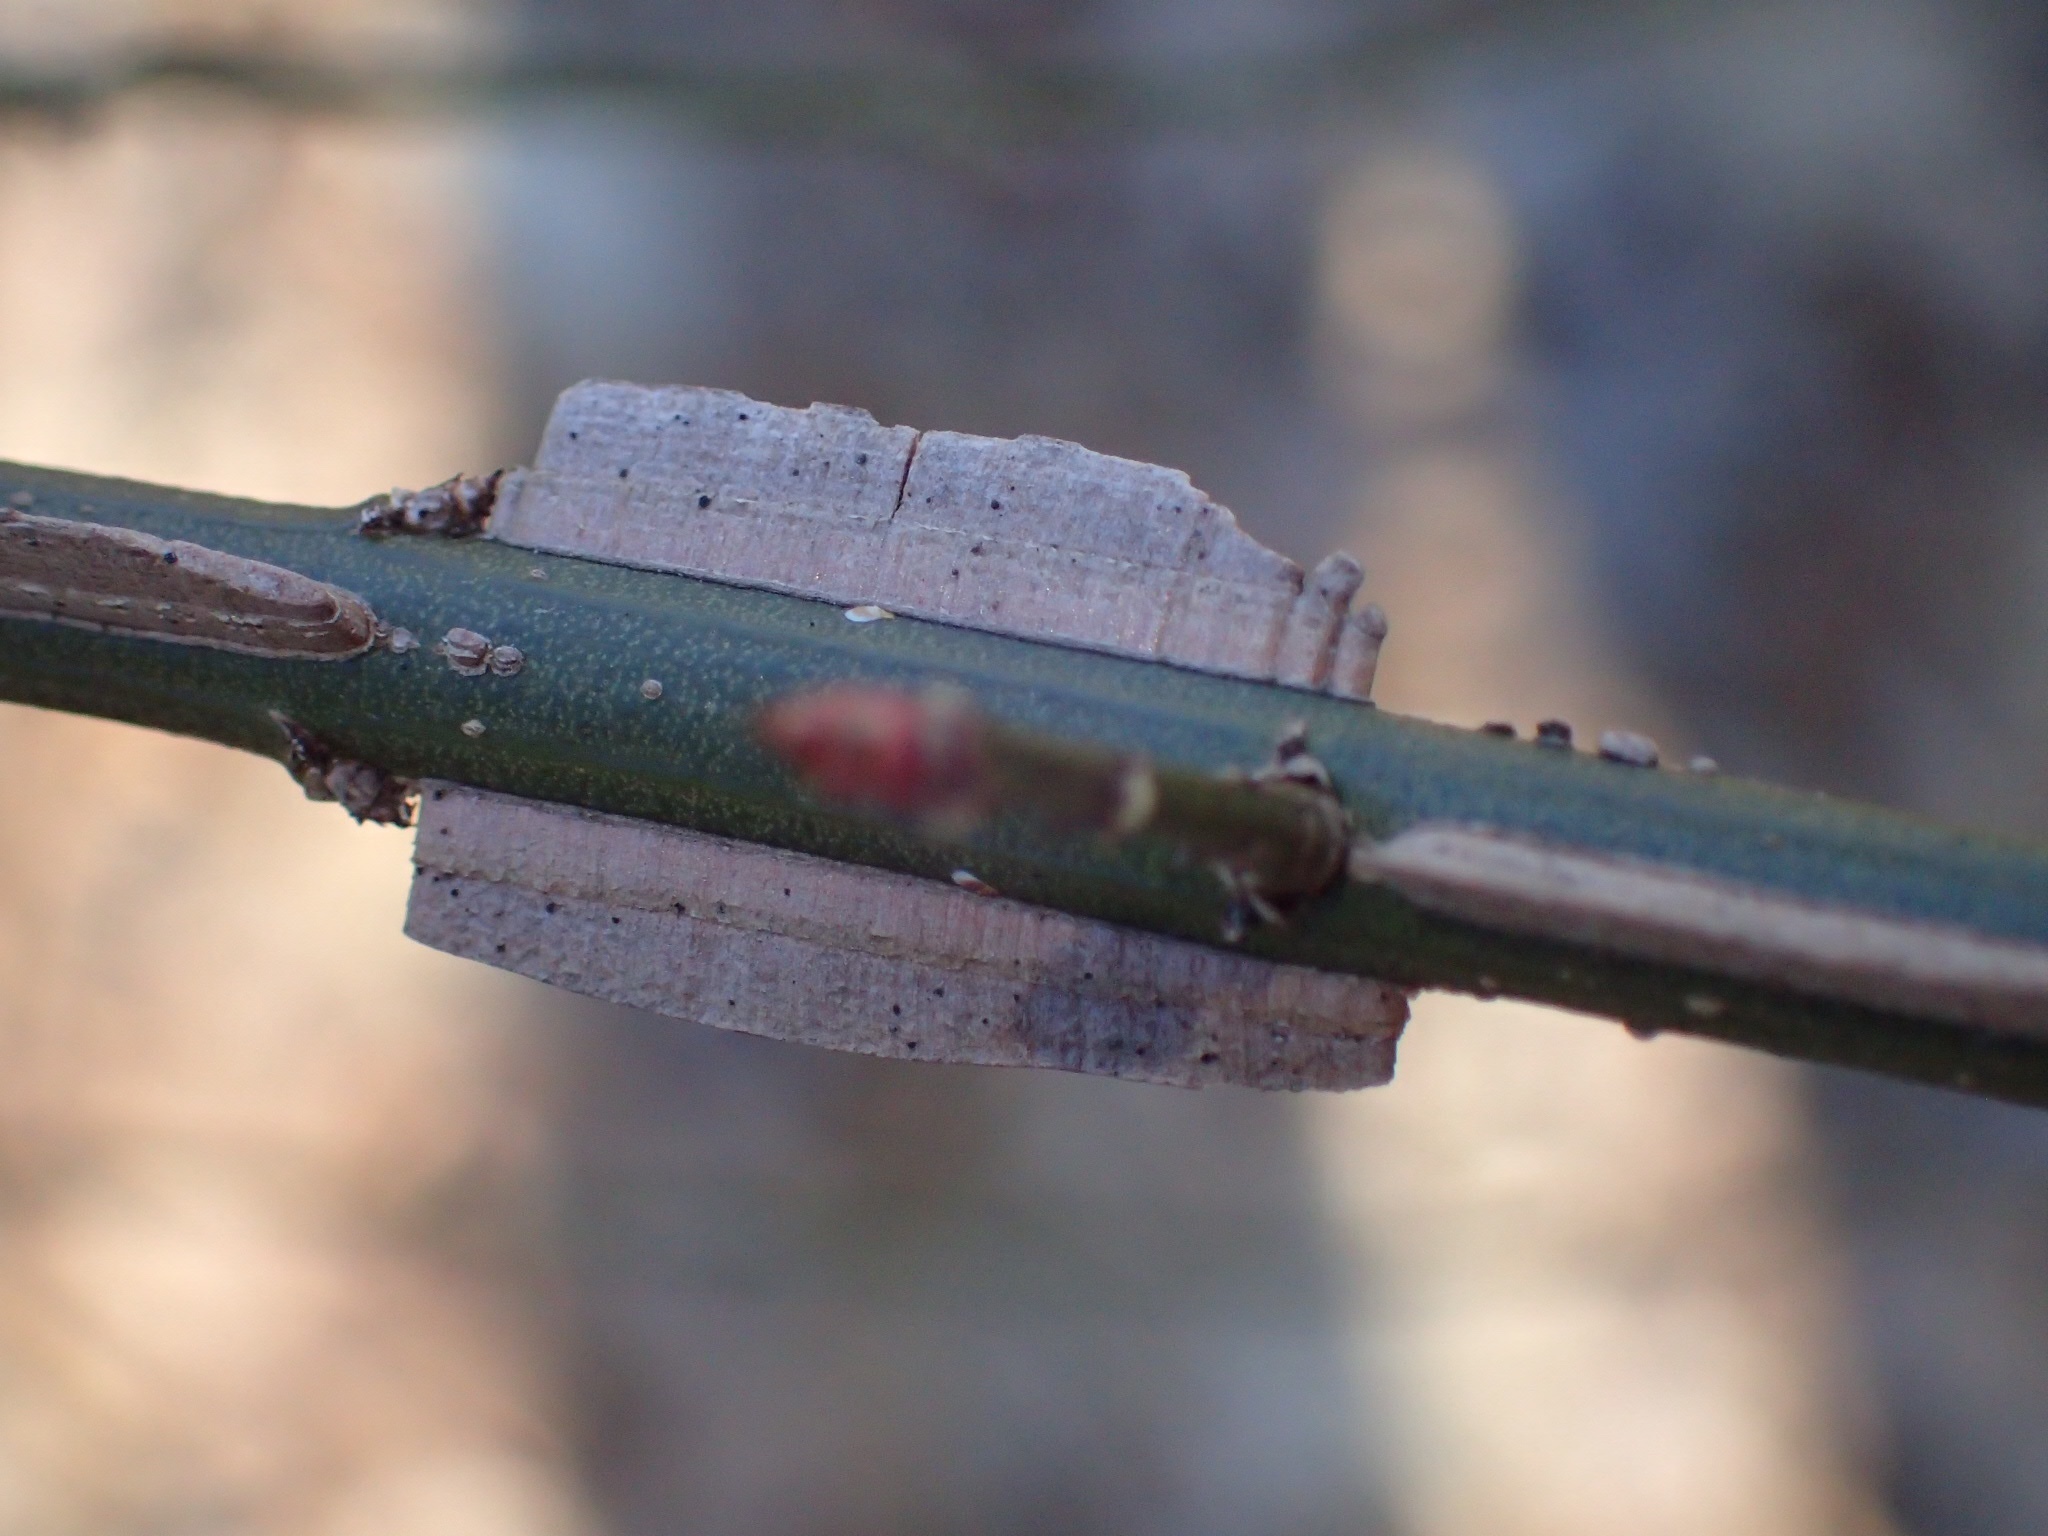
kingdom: Plantae
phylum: Tracheophyta
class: Magnoliopsida
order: Celastrales
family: Celastraceae
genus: Euonymus
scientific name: Euonymus alatus
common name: Winged euonymus
